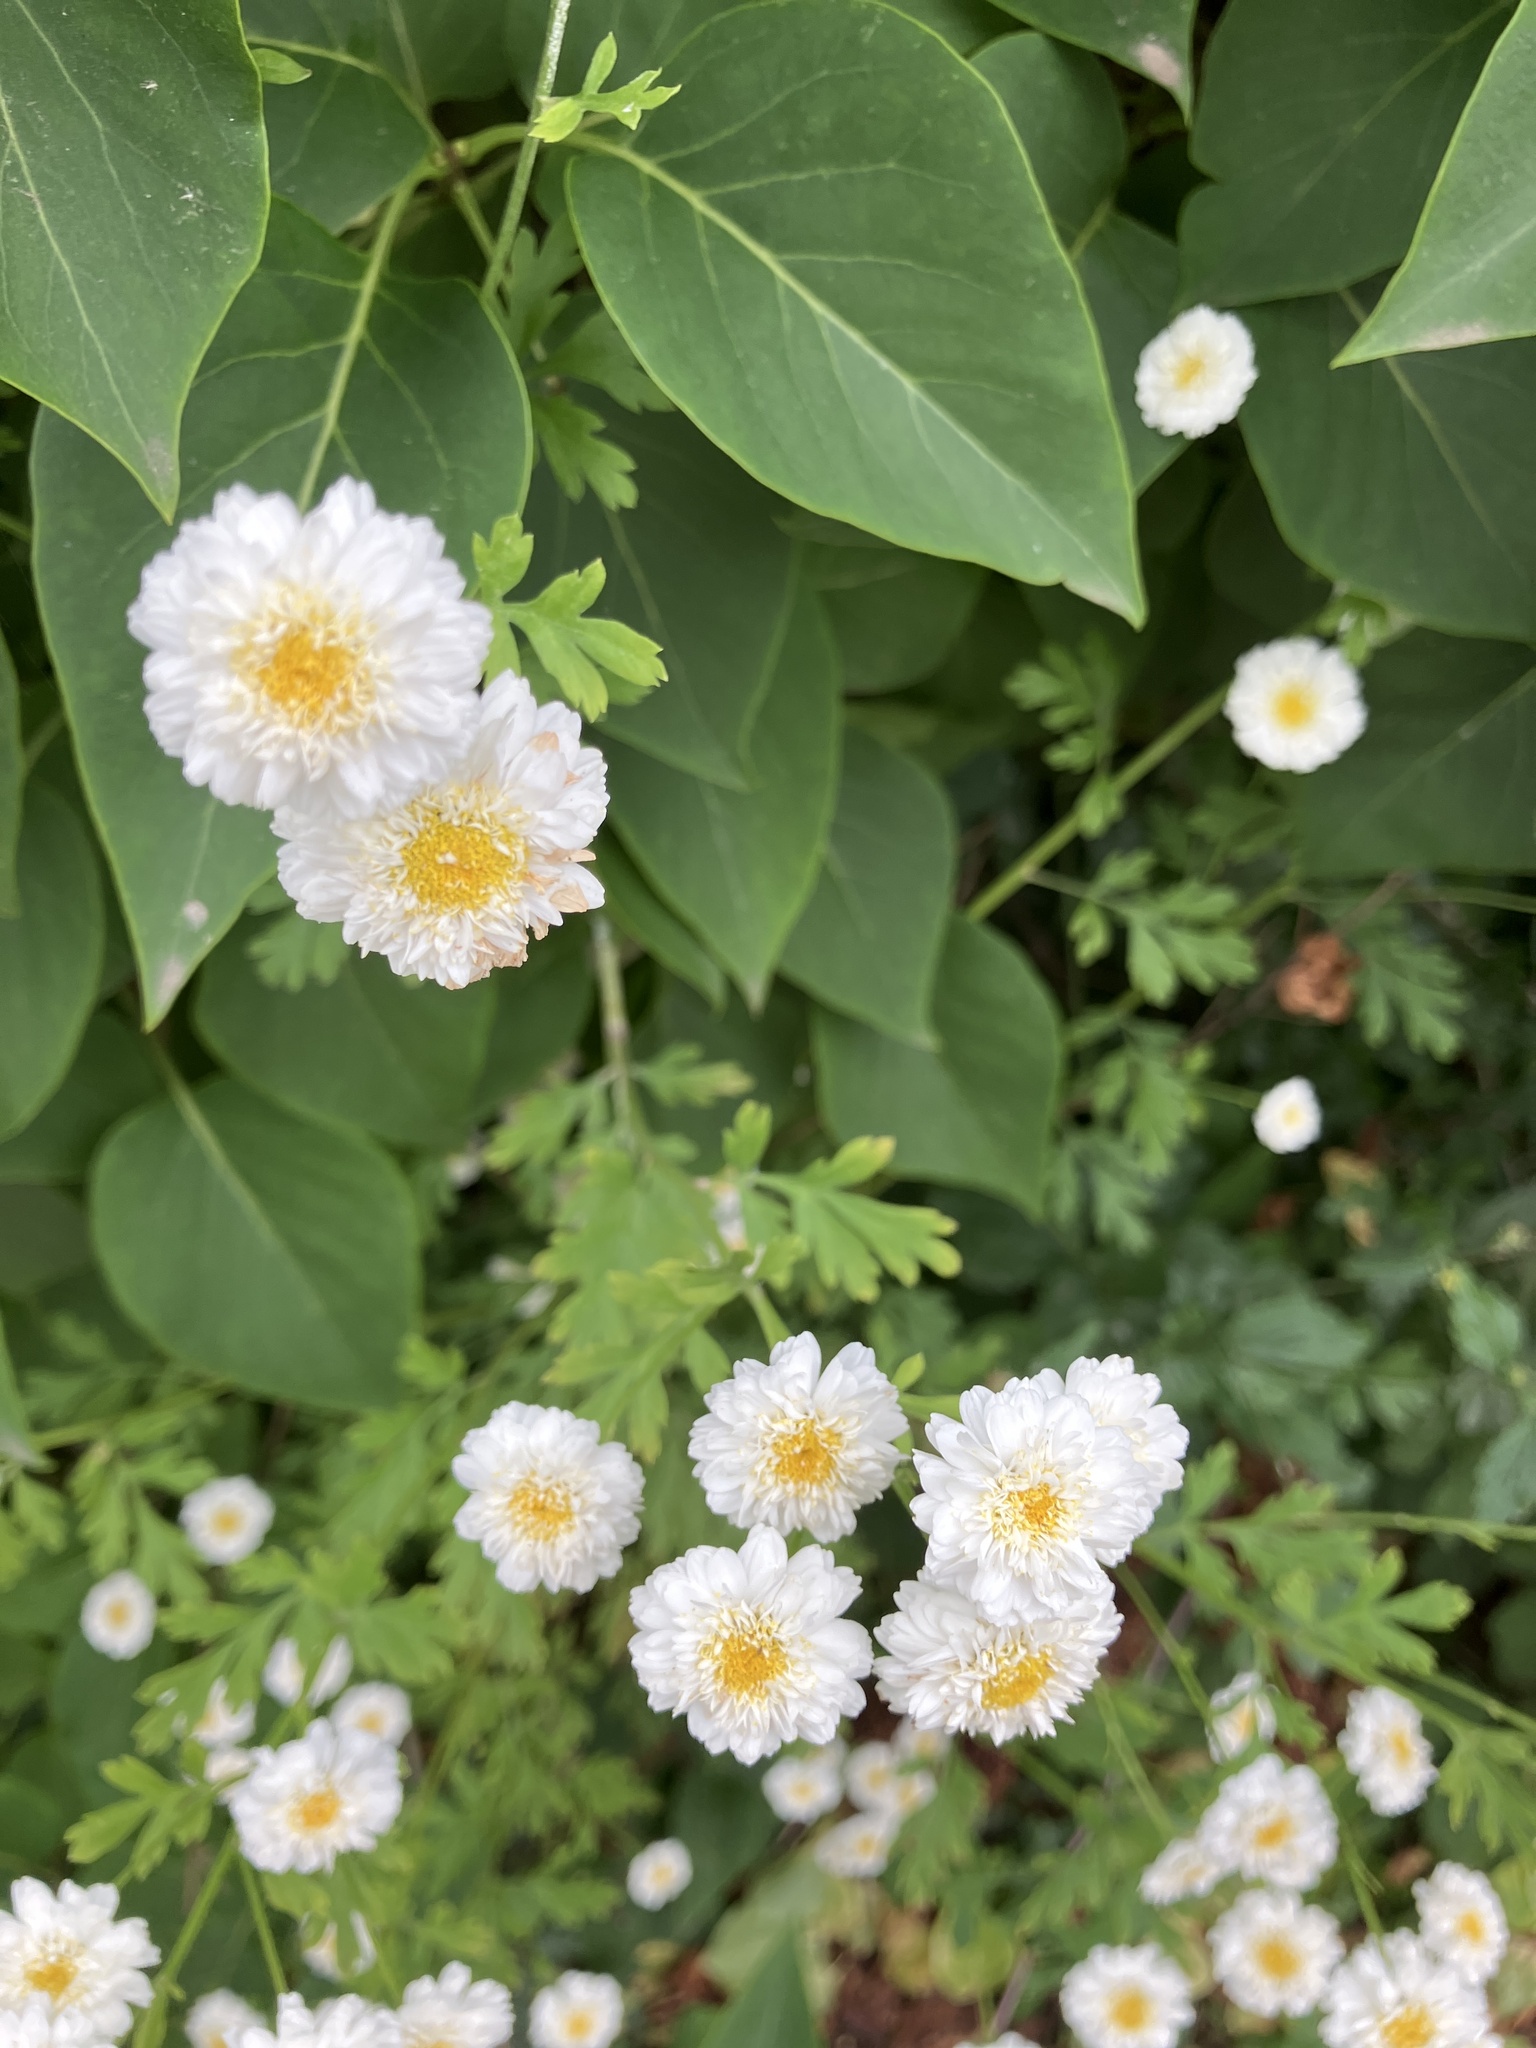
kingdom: Plantae
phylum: Tracheophyta
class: Magnoliopsida
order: Asterales
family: Asteraceae
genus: Tanacetum
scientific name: Tanacetum parthenium
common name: Feverfew
